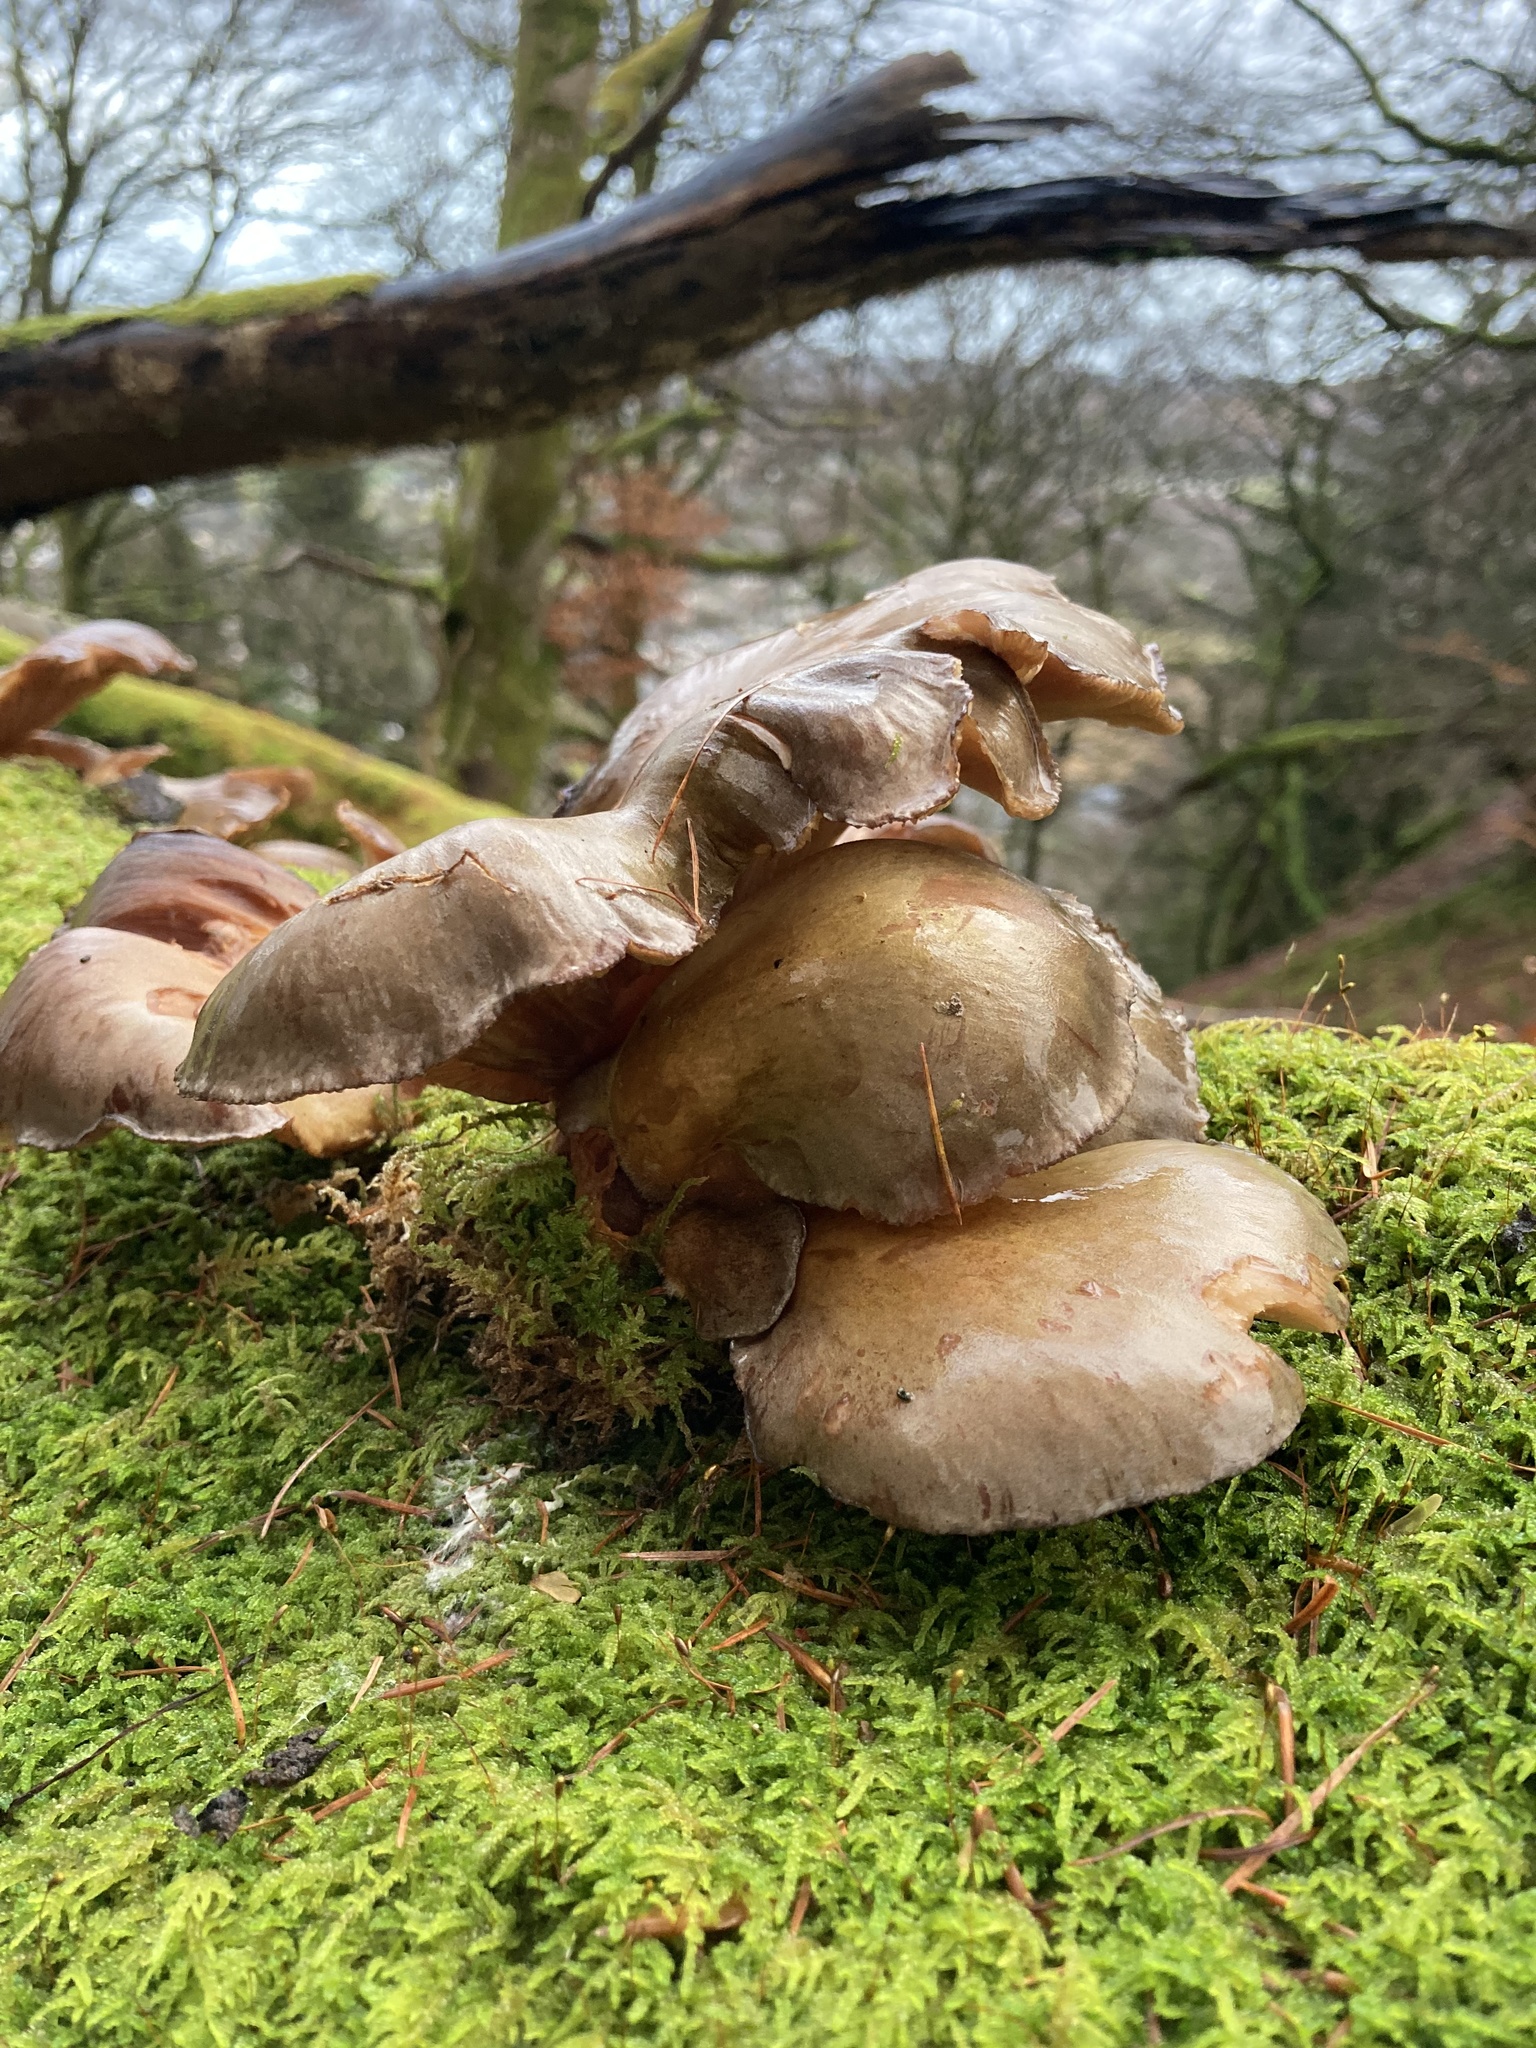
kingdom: Fungi
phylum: Basidiomycota
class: Agaricomycetes
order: Agaricales
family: Sarcomyxaceae
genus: Sarcomyxa
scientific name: Sarcomyxa serotina
